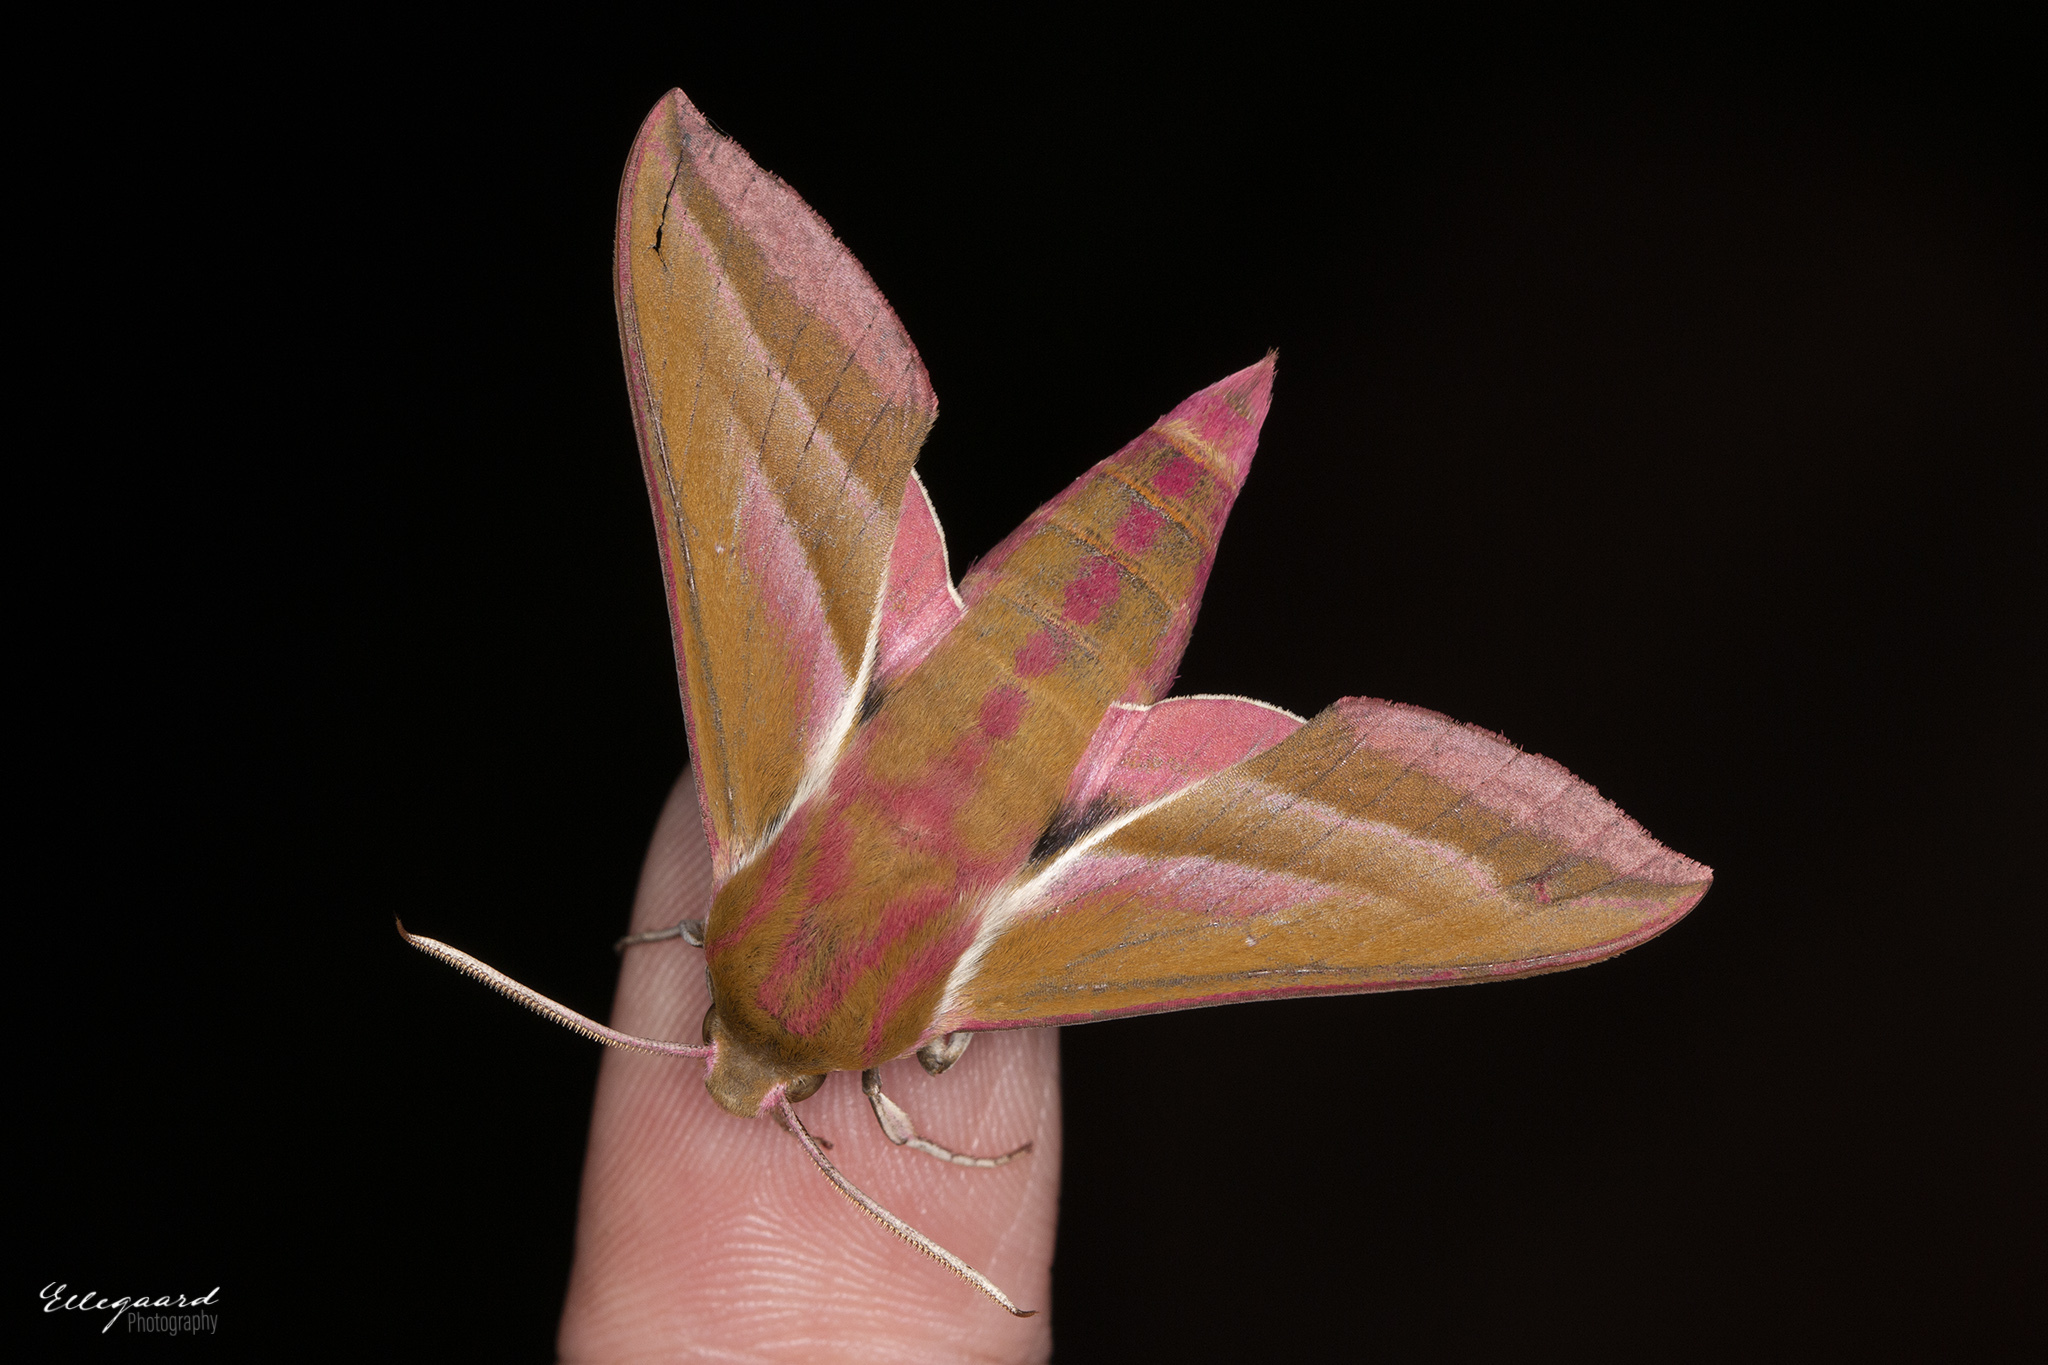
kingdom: Animalia
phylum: Arthropoda
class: Insecta
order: Lepidoptera
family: Sphingidae
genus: Deilephila
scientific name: Deilephila elpenor
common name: Elephant hawk-moth
